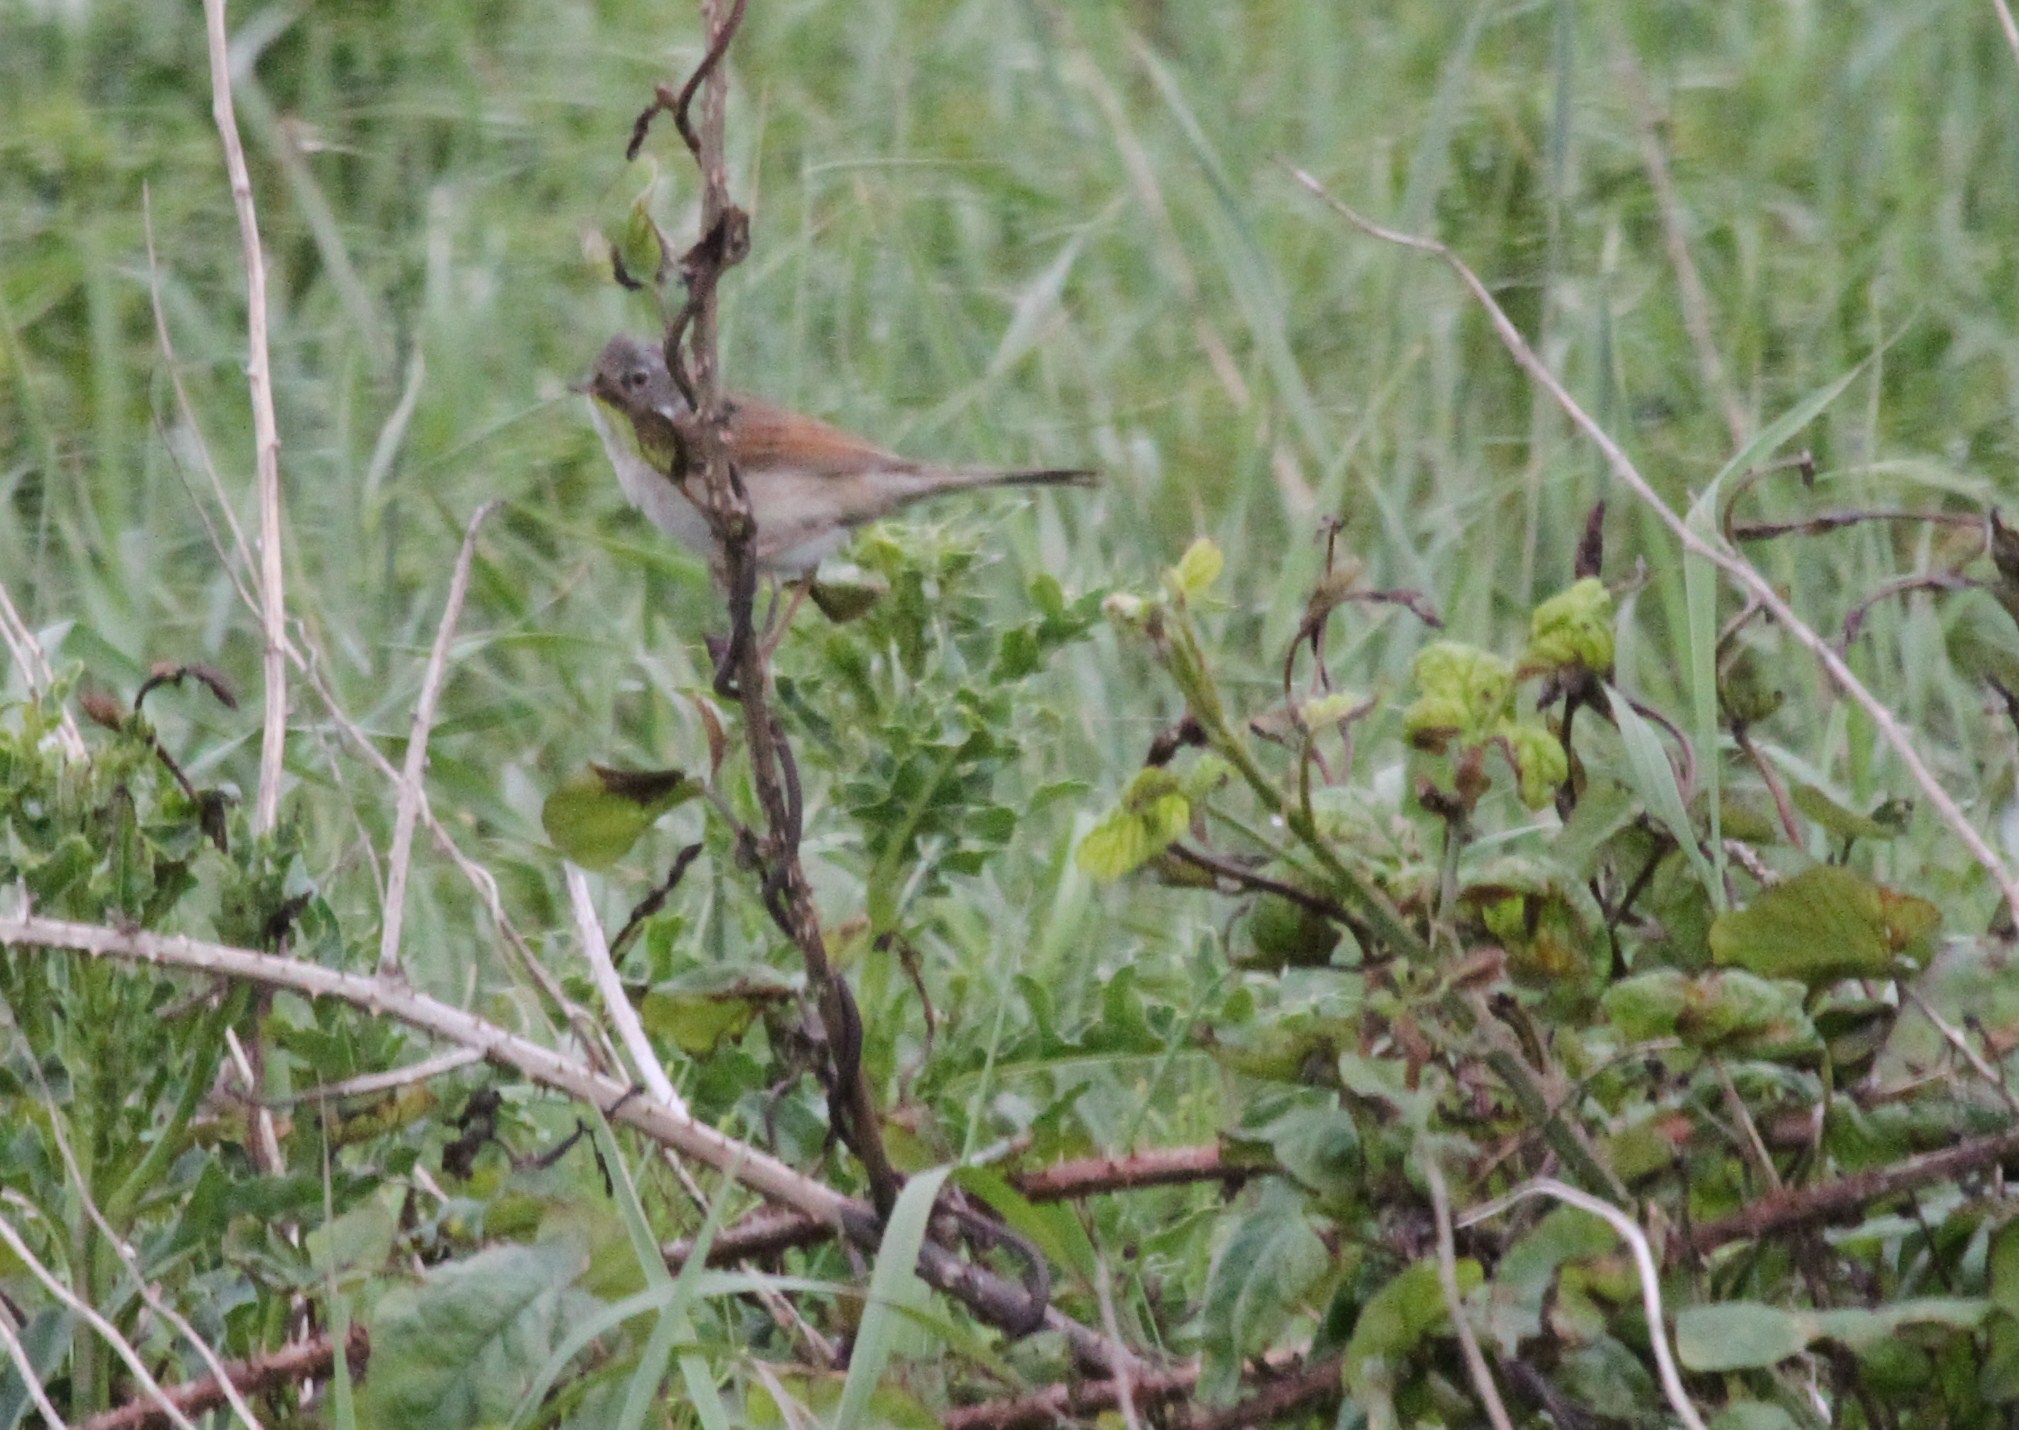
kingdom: Animalia
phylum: Chordata
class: Aves
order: Passeriformes
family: Sylviidae
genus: Sylvia
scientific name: Sylvia communis
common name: Common whitethroat
